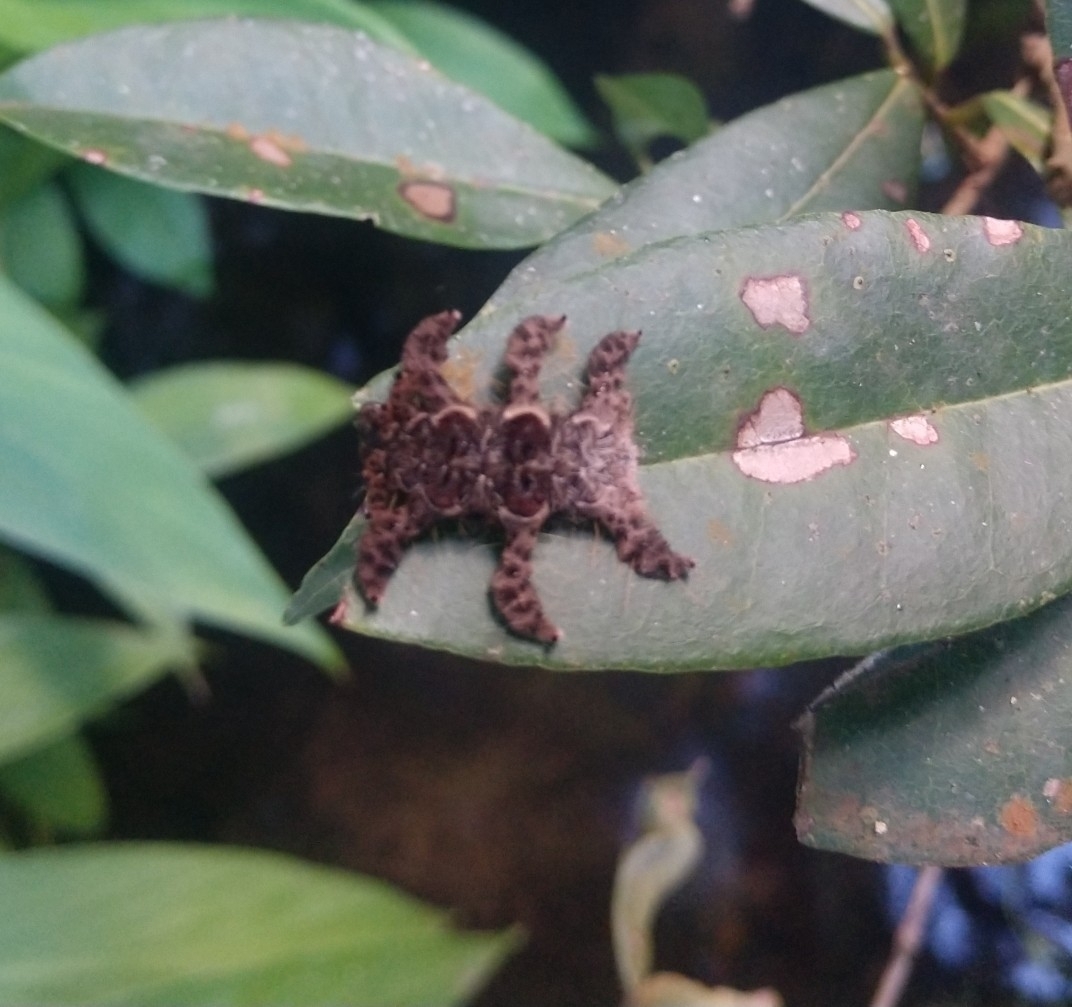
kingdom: Animalia
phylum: Arthropoda
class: Insecta
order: Lepidoptera
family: Limacodidae
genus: Phobetron
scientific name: Phobetron hipparchia
